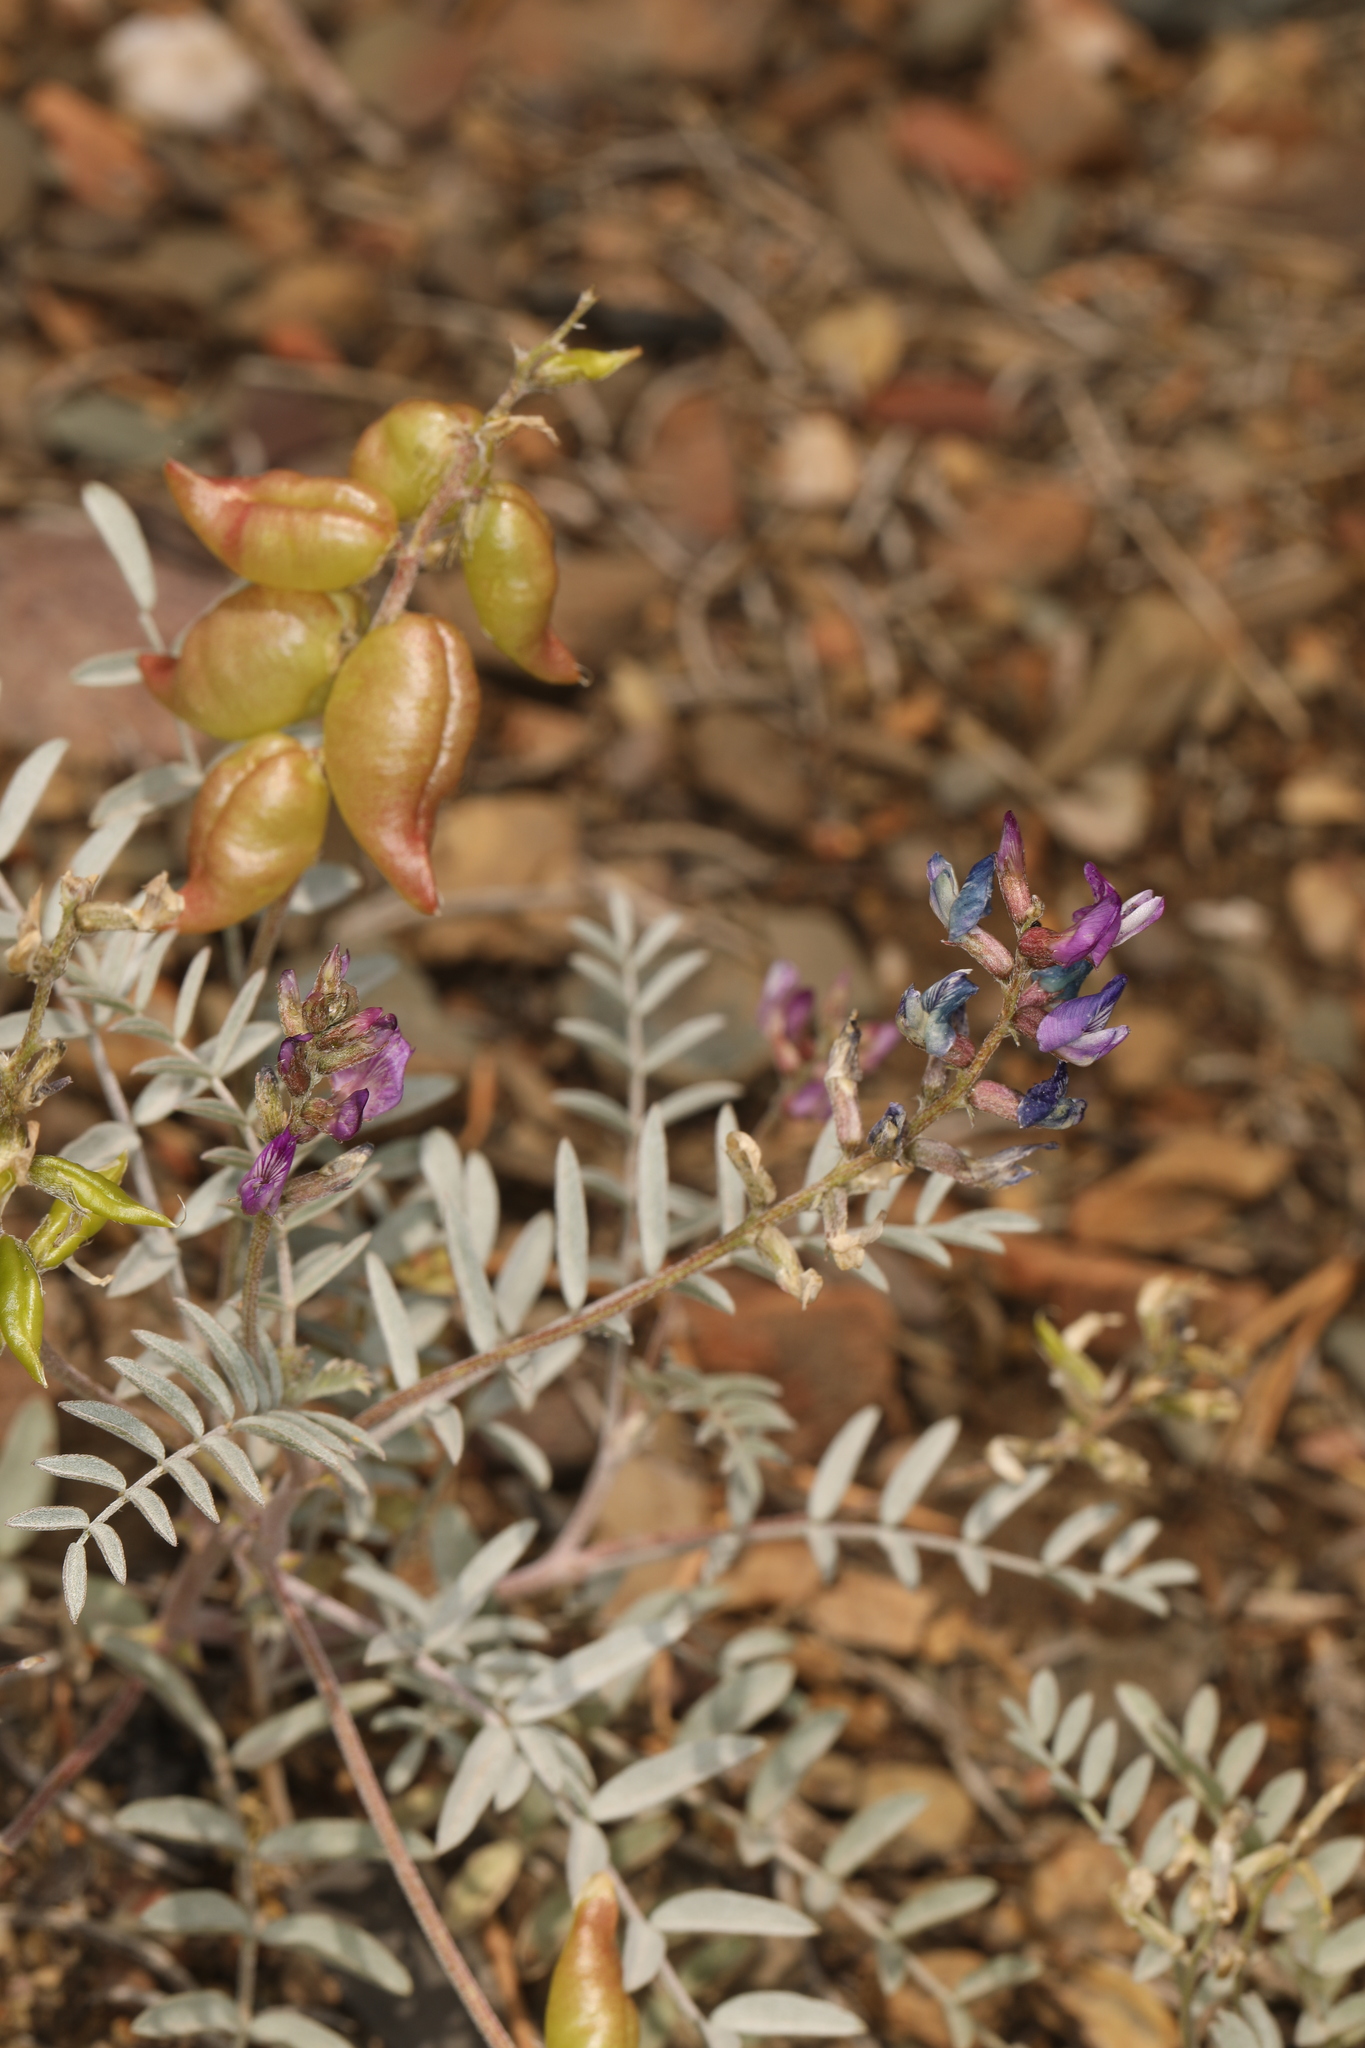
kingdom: Plantae
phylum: Tracheophyta
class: Magnoliopsida
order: Fabales
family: Fabaceae
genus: Astragalus
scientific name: Astragalus lentiginosus
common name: Freckled milkvetch
